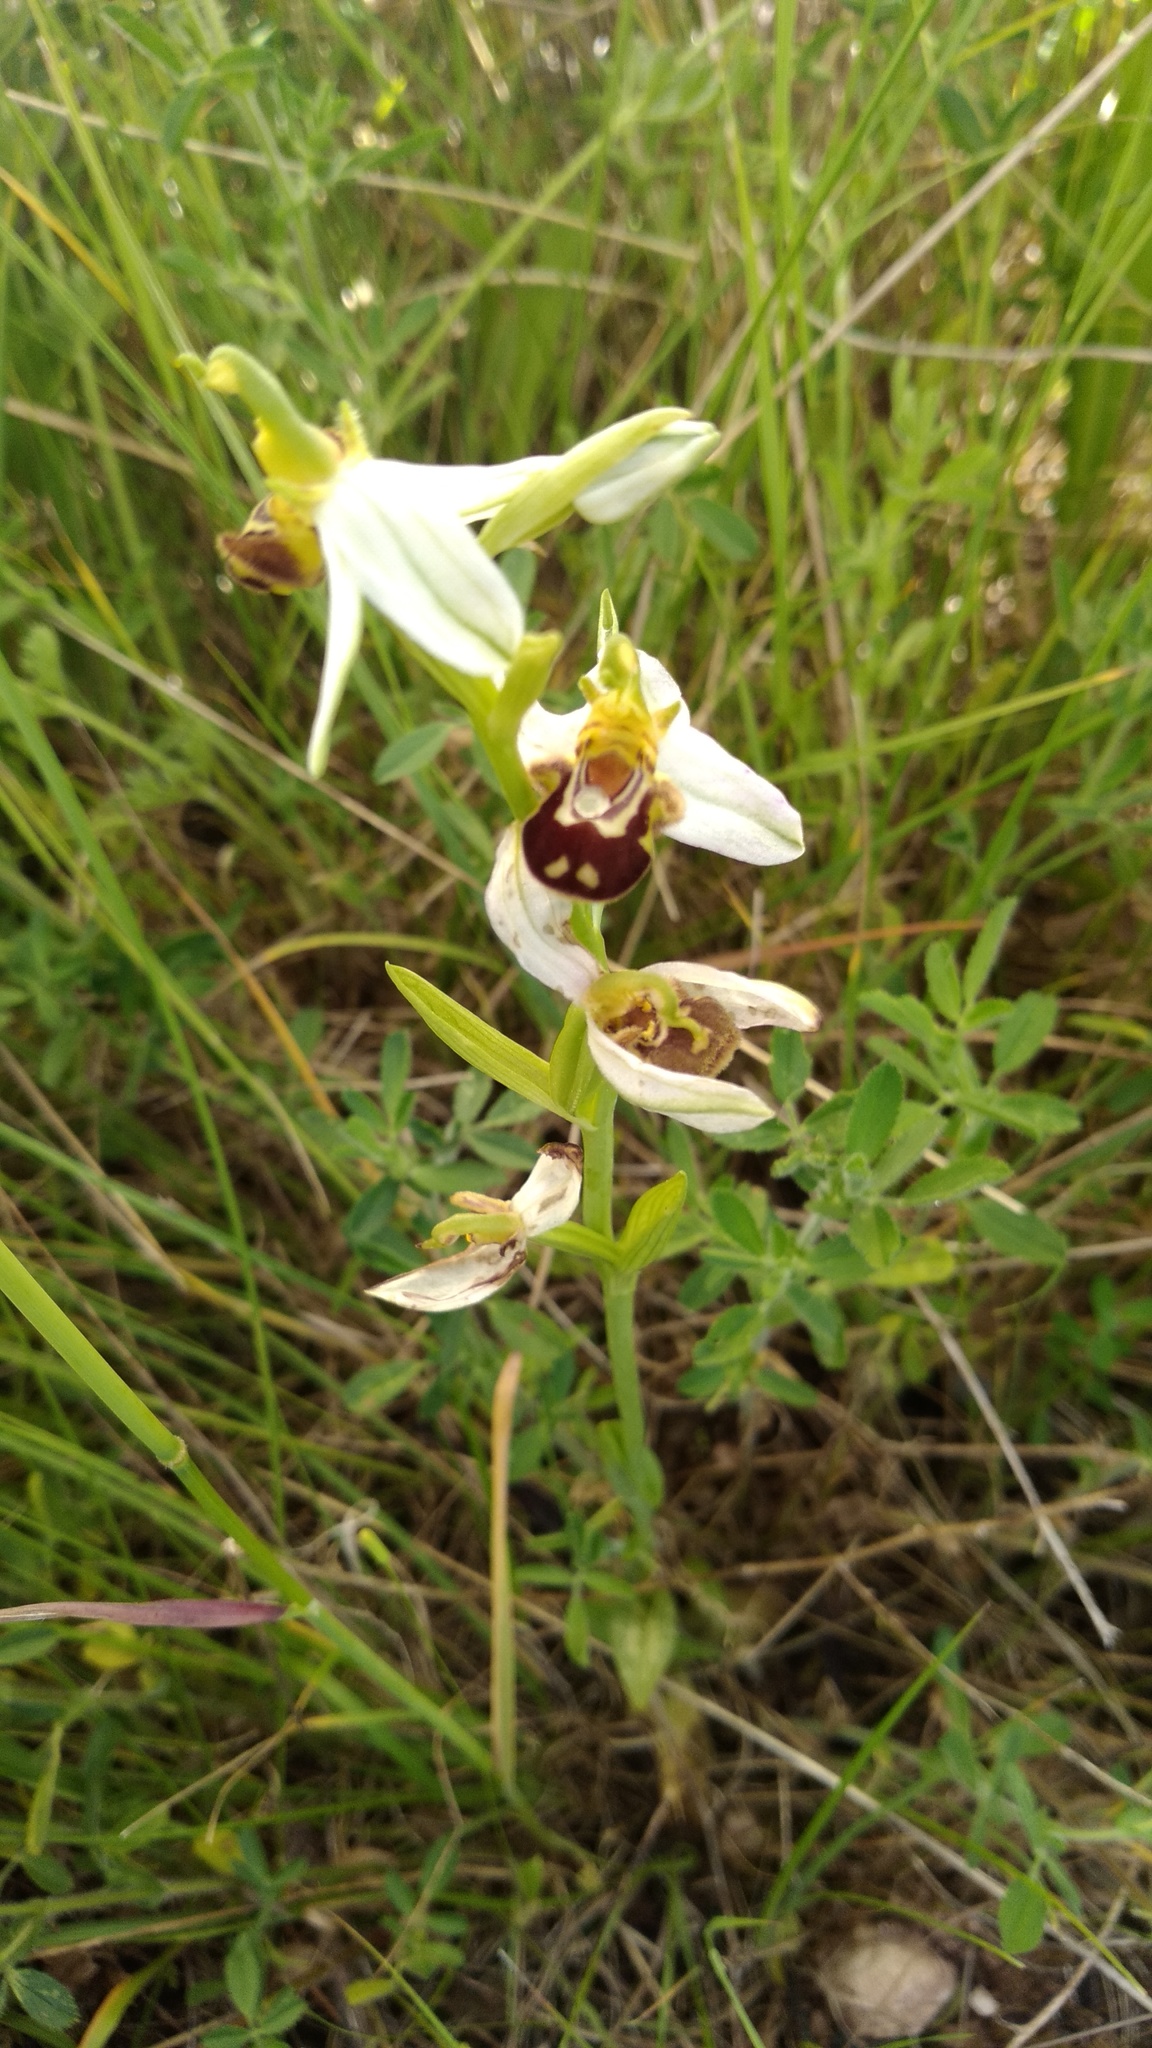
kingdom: Plantae
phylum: Tracheophyta
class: Liliopsida
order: Asparagales
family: Orchidaceae
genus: Ophrys
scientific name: Ophrys apifera
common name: Bee orchid
